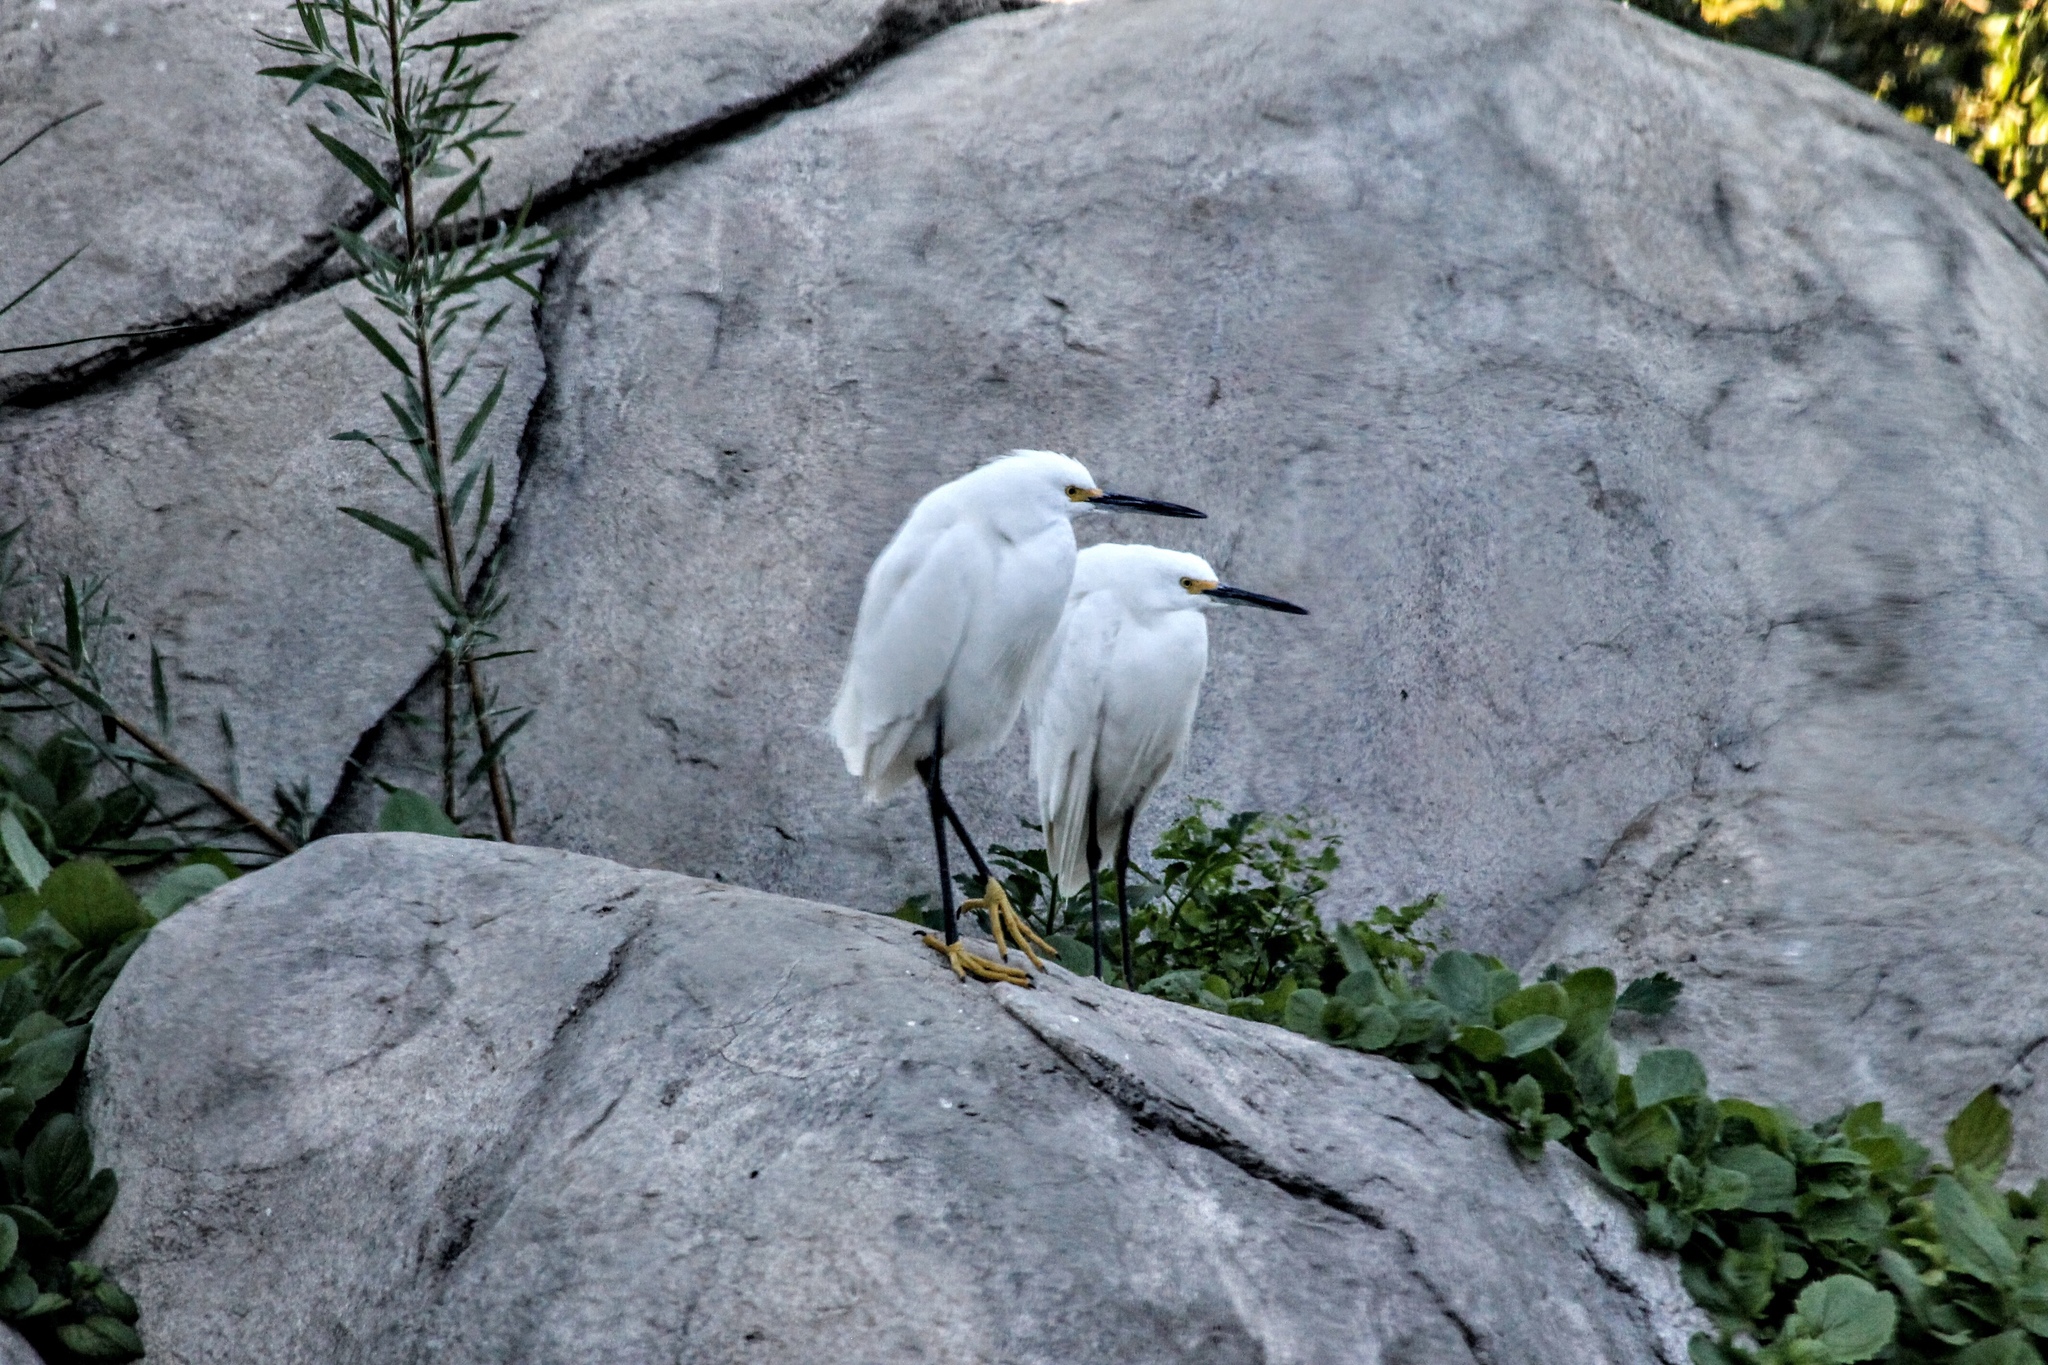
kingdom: Animalia
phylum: Chordata
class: Aves
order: Pelecaniformes
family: Ardeidae
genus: Egretta
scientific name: Egretta thula
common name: Snowy egret
